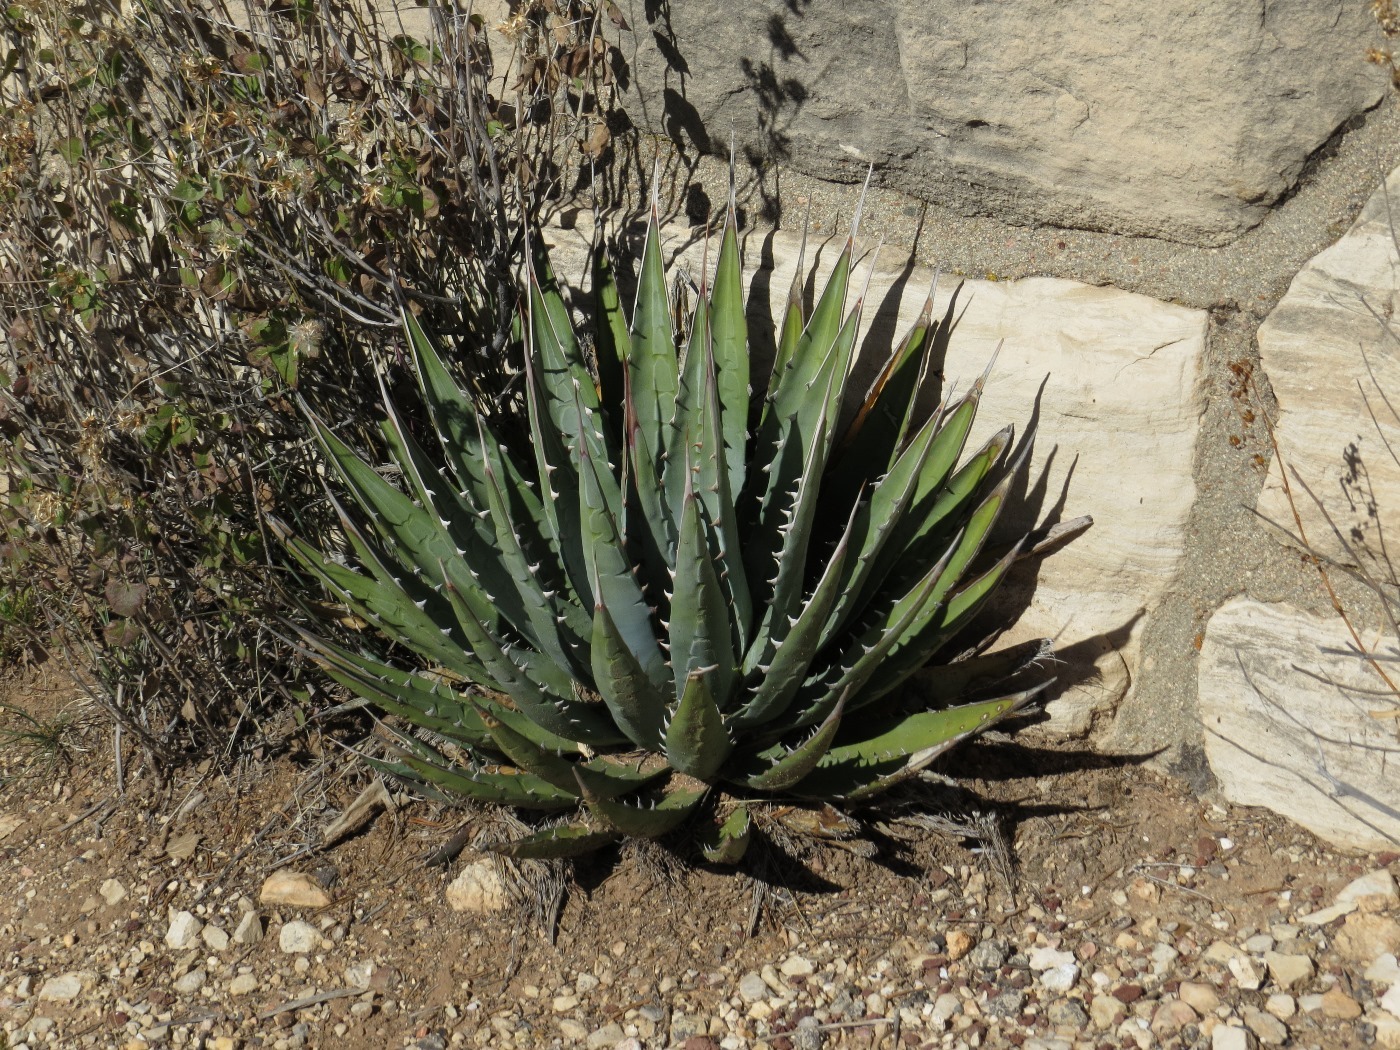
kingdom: Plantae
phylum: Tracheophyta
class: Liliopsida
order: Asparagales
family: Asparagaceae
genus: Agave
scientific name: Agave utahensis
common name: Utah agave
